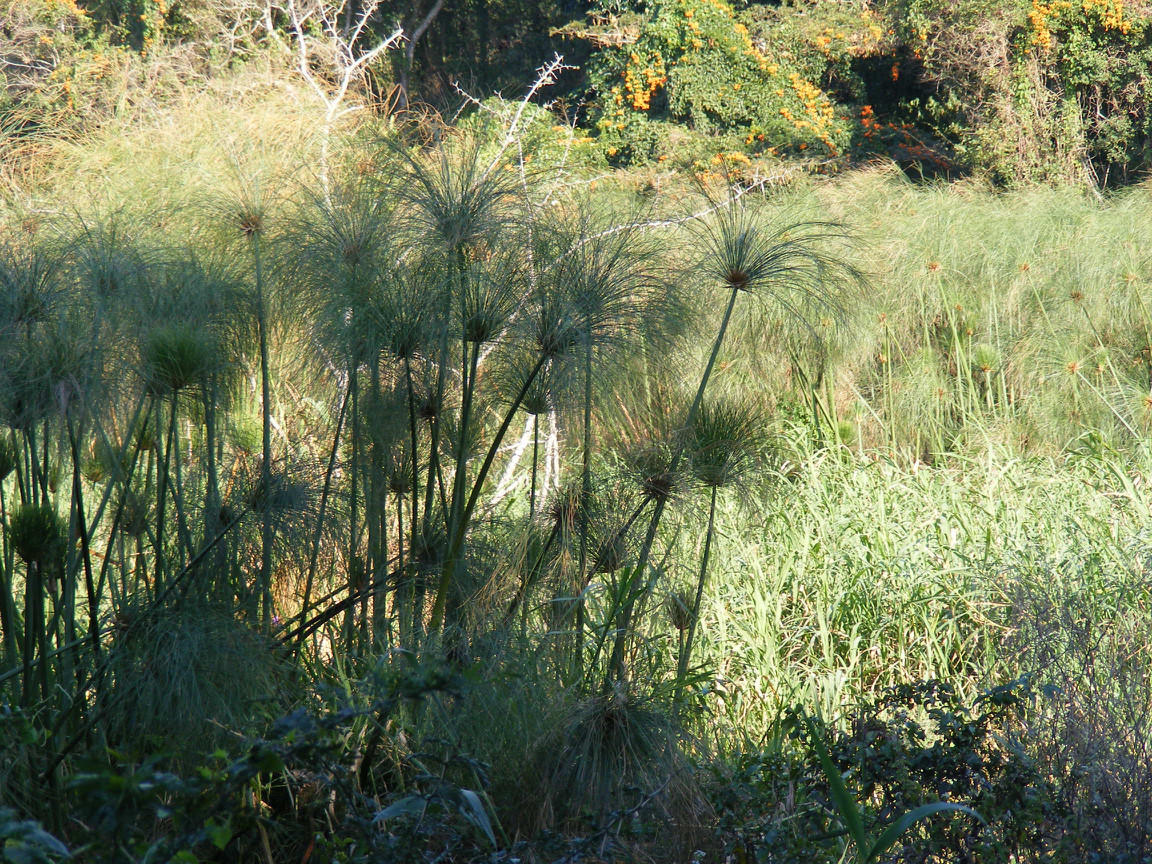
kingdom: Plantae
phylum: Tracheophyta
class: Liliopsida
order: Poales
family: Cyperaceae
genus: Cyperus
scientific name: Cyperus papyrus
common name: Papyrus
